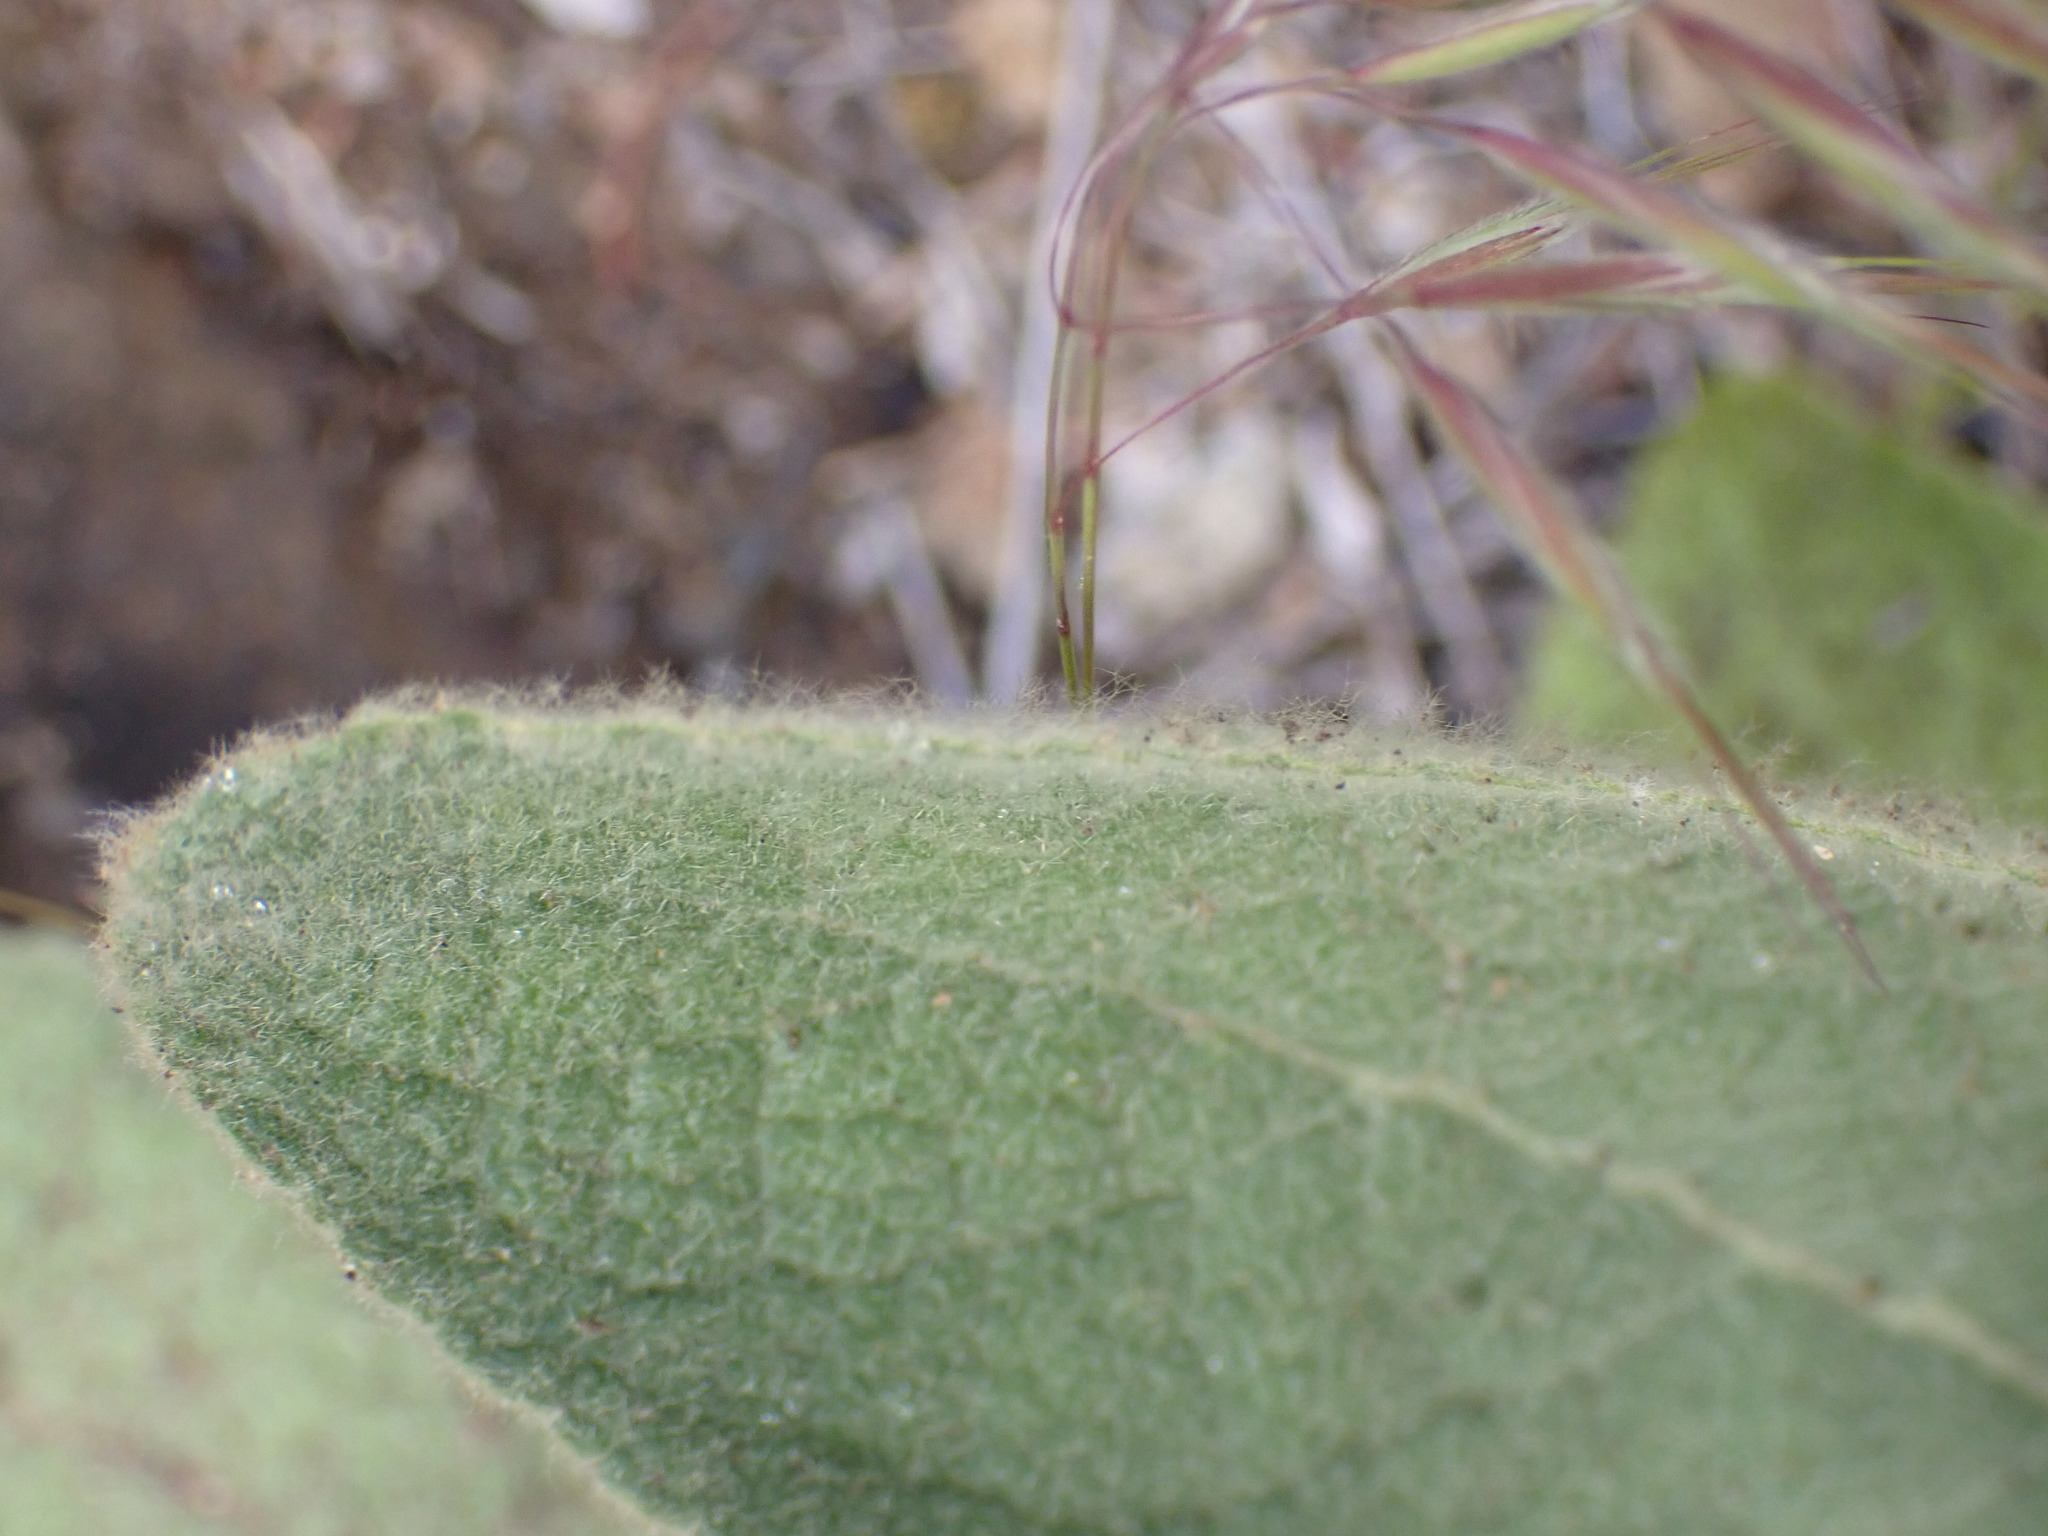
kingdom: Plantae
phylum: Tracheophyta
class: Magnoliopsida
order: Lamiales
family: Scrophulariaceae
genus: Verbascum
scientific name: Verbascum thapsus
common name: Common mullein
